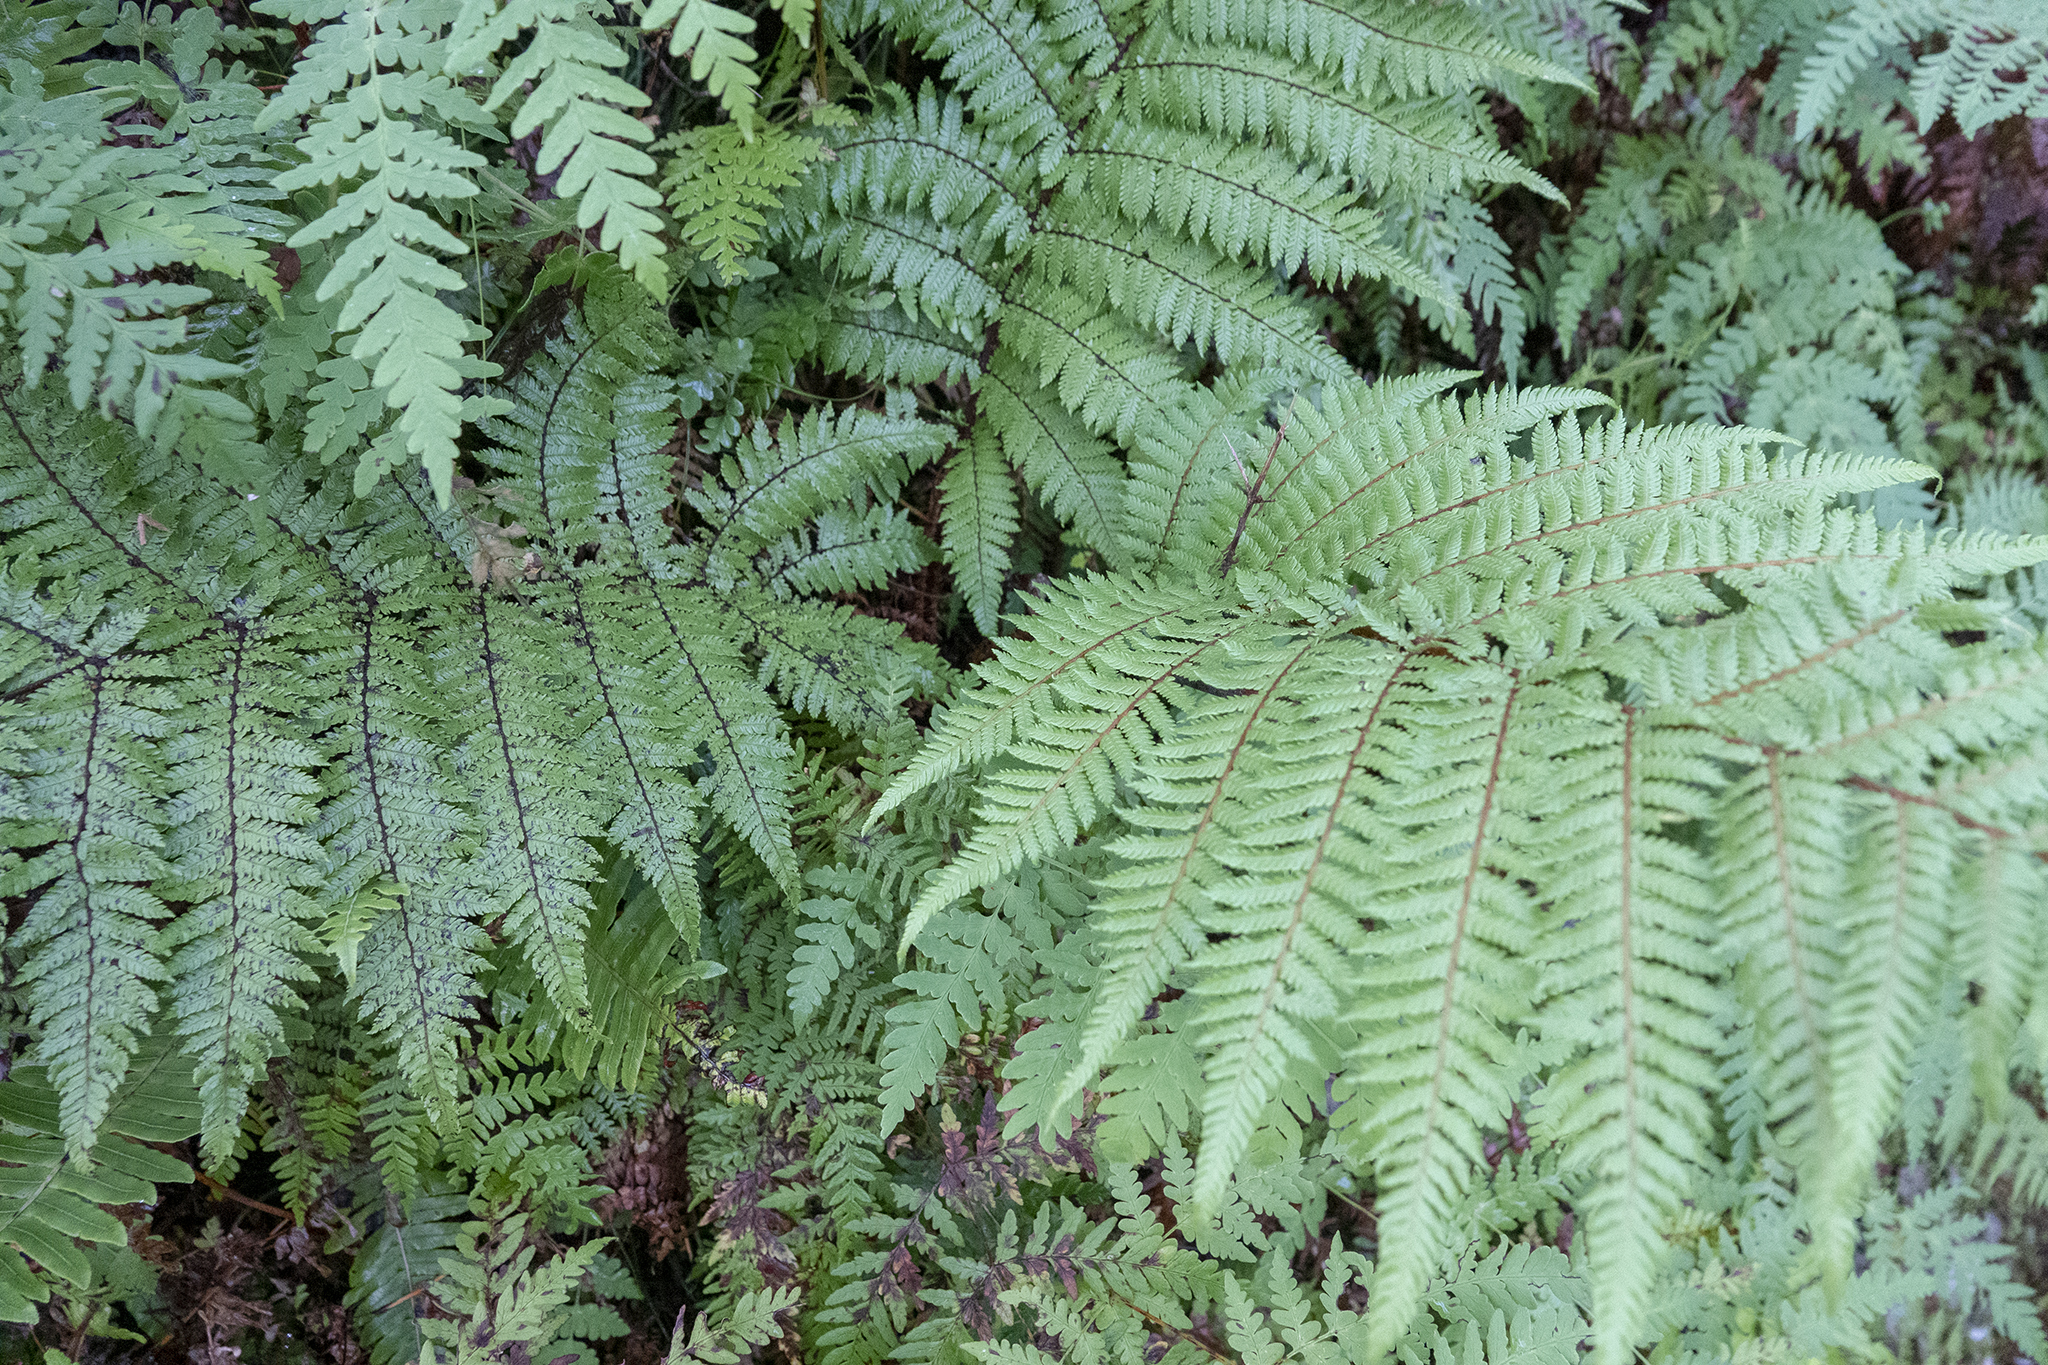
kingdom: Plantae
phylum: Tracheophyta
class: Polypodiopsida
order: Cyatheales
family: Cyatheaceae
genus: Alsophila
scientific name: Alsophila smithii
